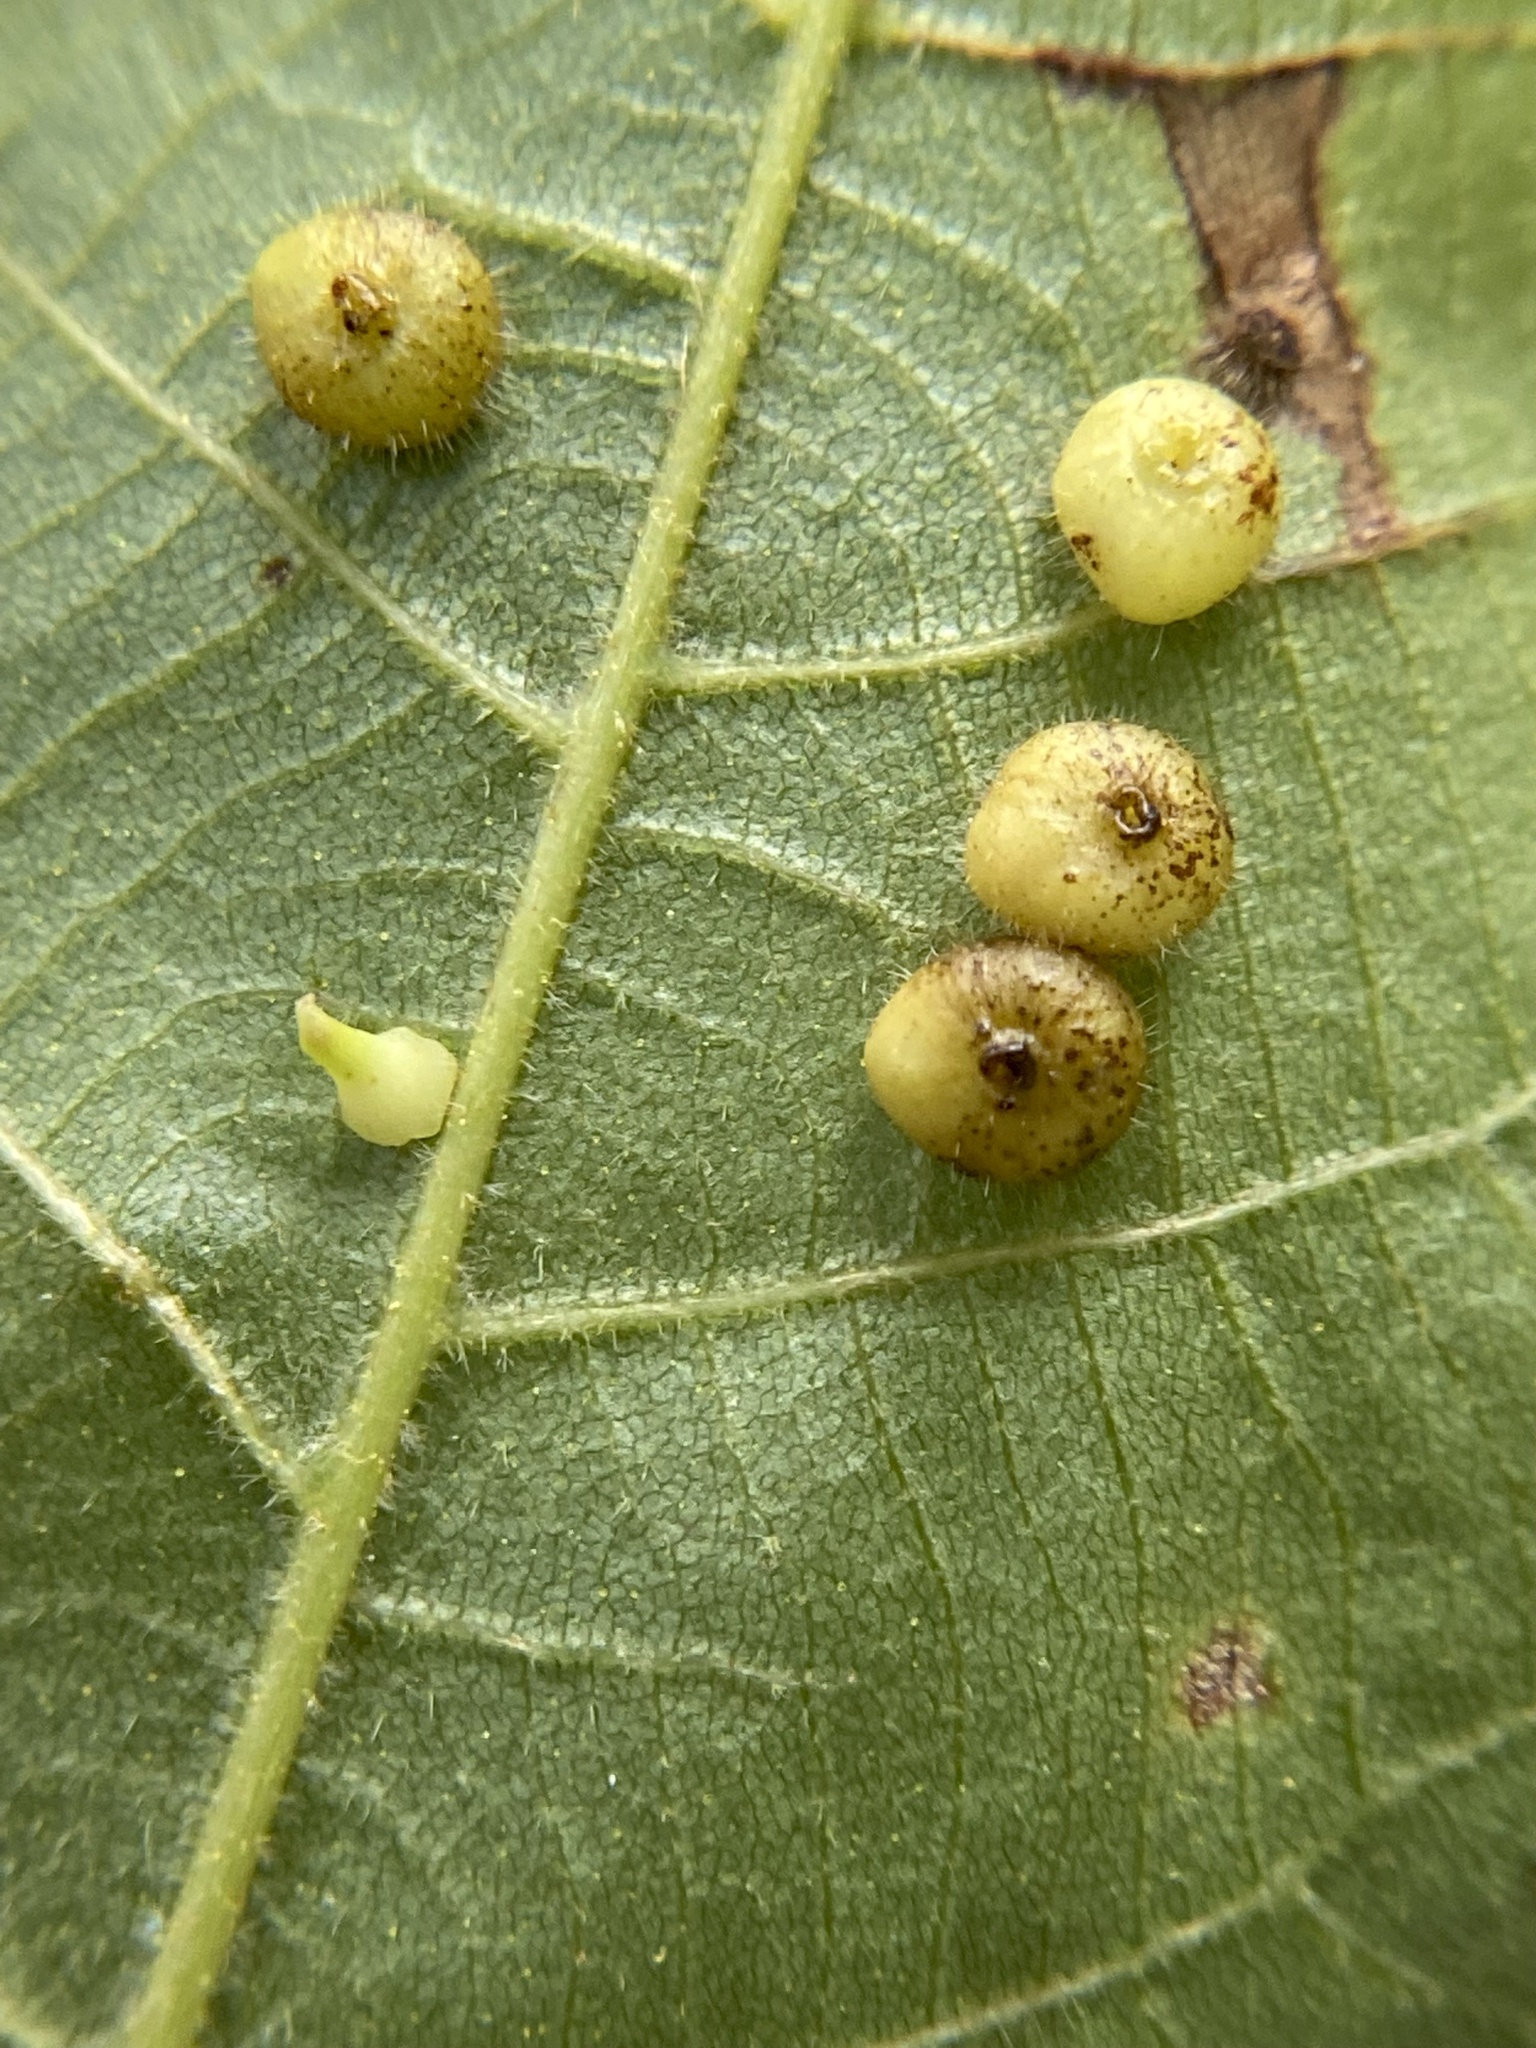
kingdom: Animalia
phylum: Arthropoda
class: Insecta
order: Diptera
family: Cecidomyiidae
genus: Caryomyia
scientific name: Caryomyia thompsoni
